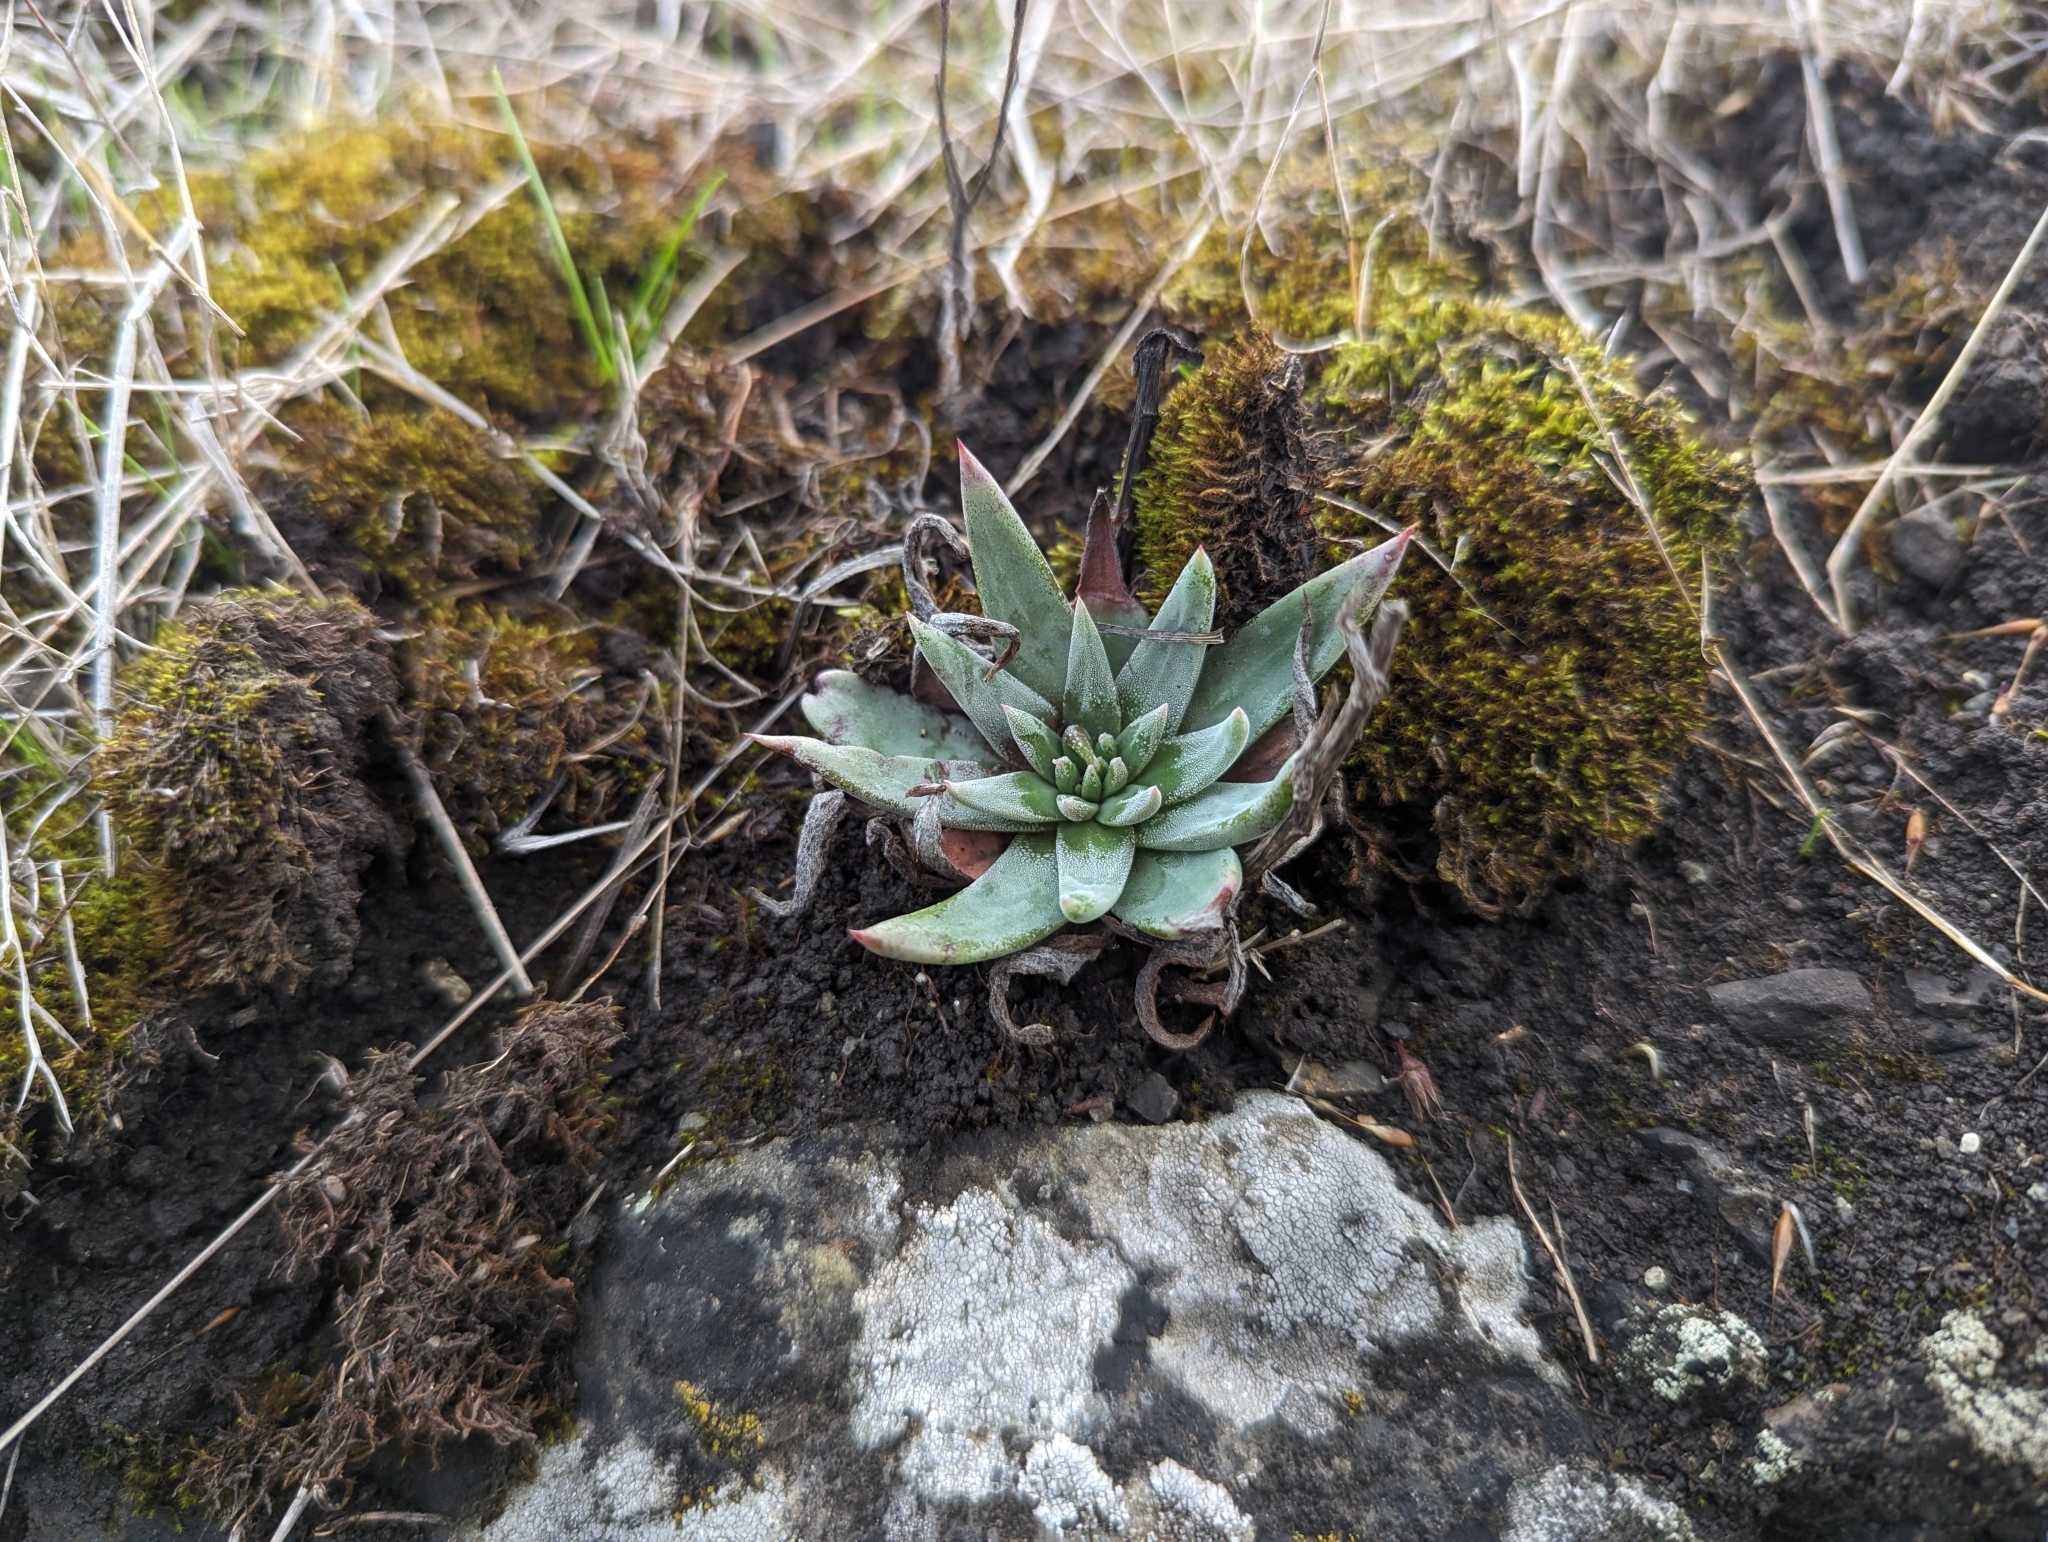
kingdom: Plantae
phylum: Tracheophyta
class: Magnoliopsida
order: Saxifragales
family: Crassulaceae
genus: Dudleya
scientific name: Dudleya abramsii
